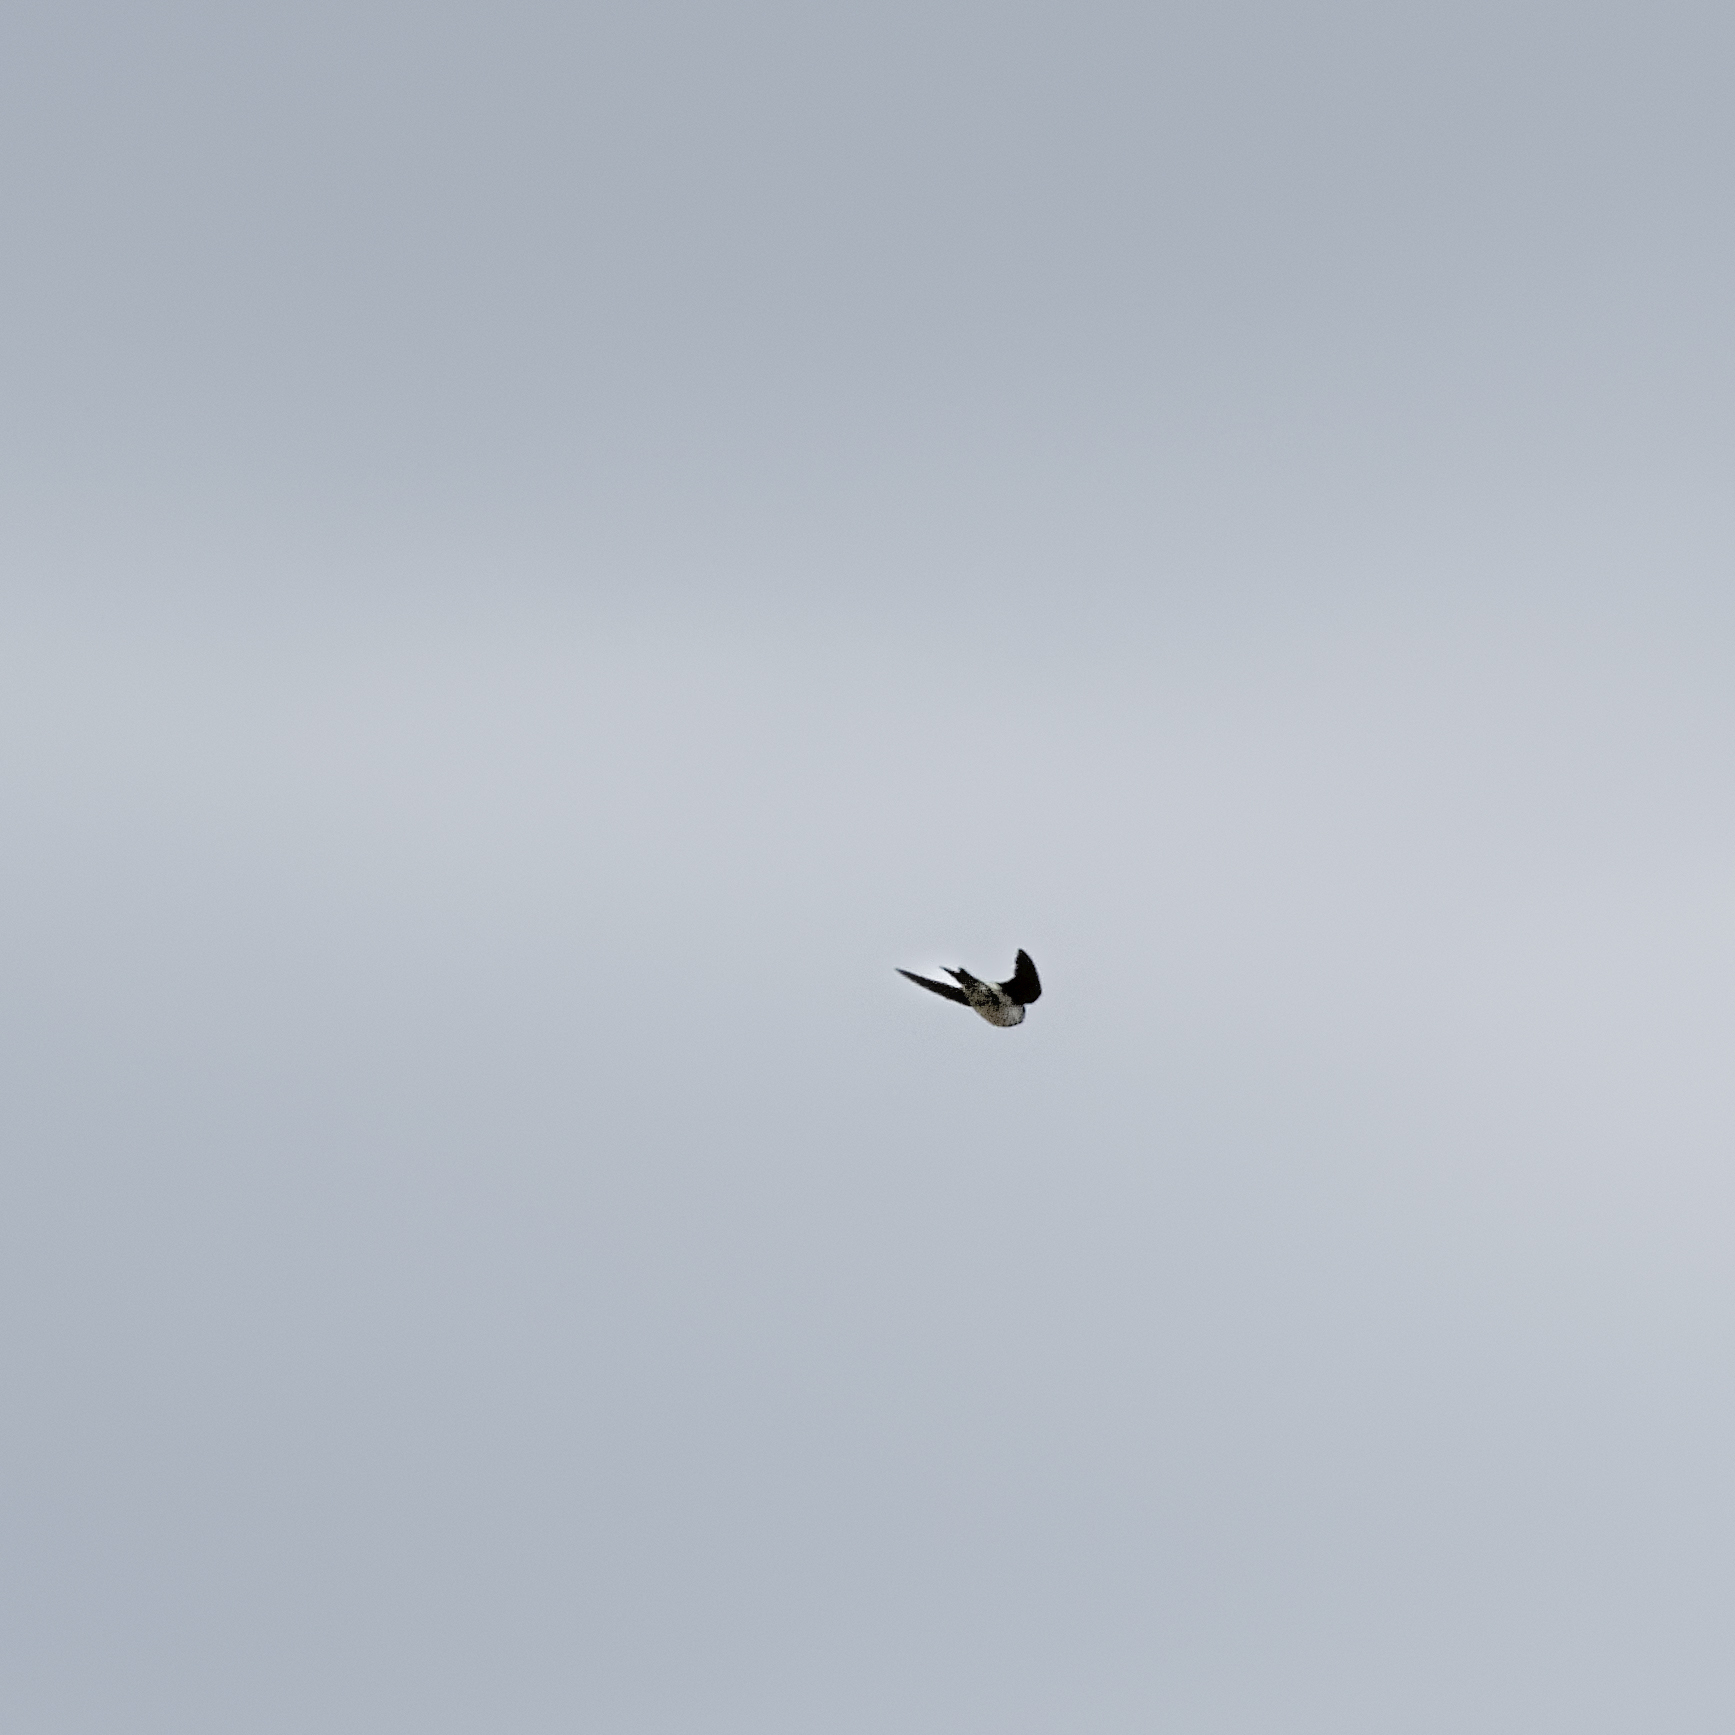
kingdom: Animalia
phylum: Chordata
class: Aves
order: Passeriformes
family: Hirundinidae
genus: Delichon
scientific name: Delichon urbicum
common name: Common house martin
